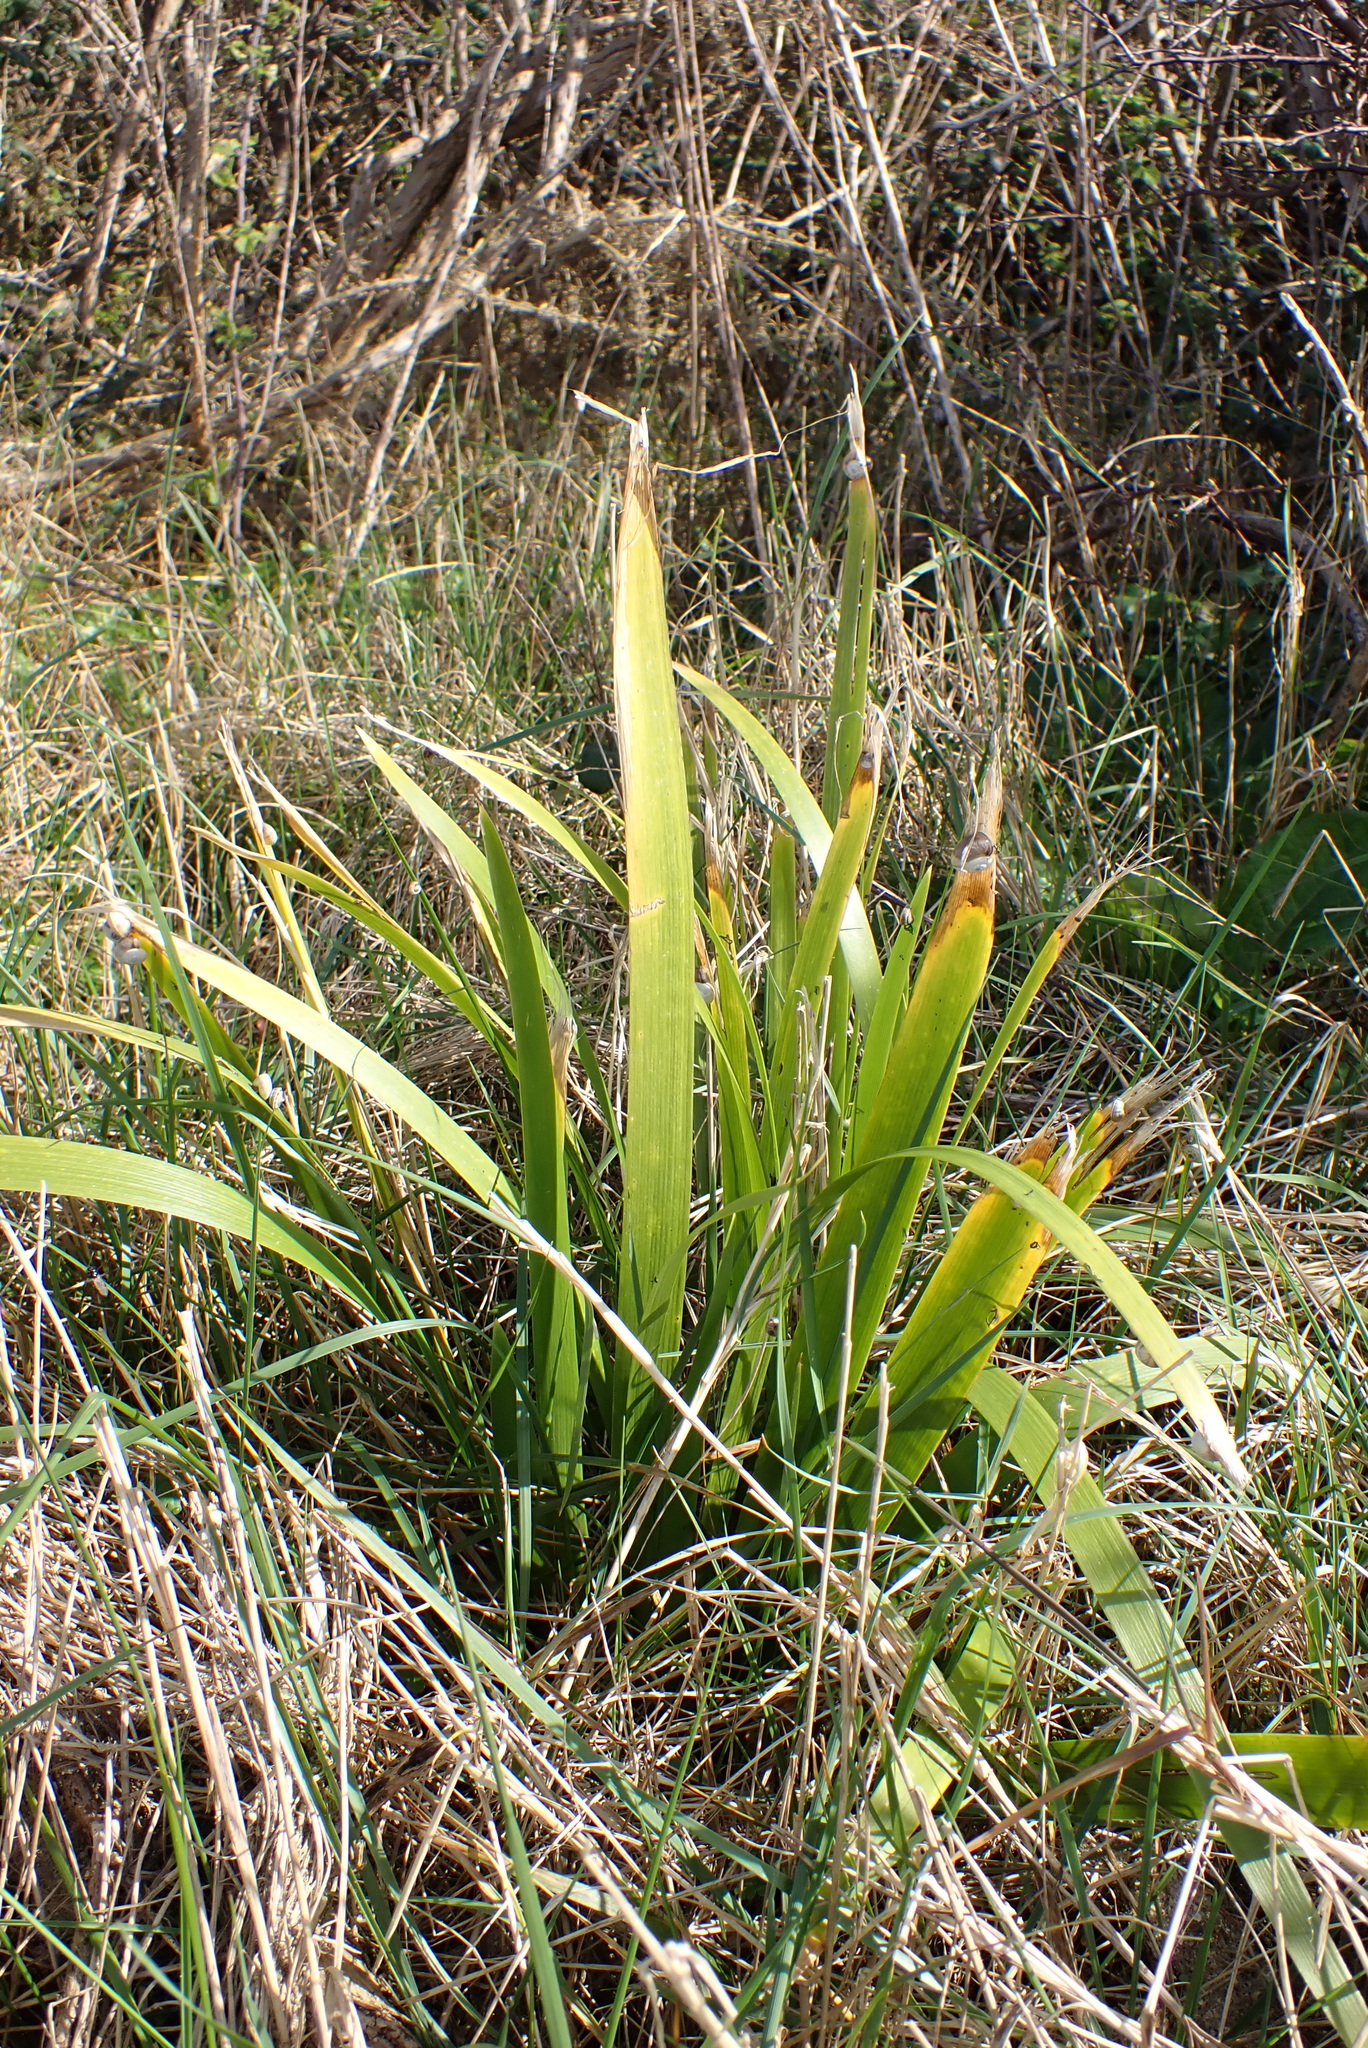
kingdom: Plantae
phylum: Tracheophyta
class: Liliopsida
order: Asparagales
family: Iridaceae
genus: Iris
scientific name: Iris foetidissima
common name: Stinking iris
